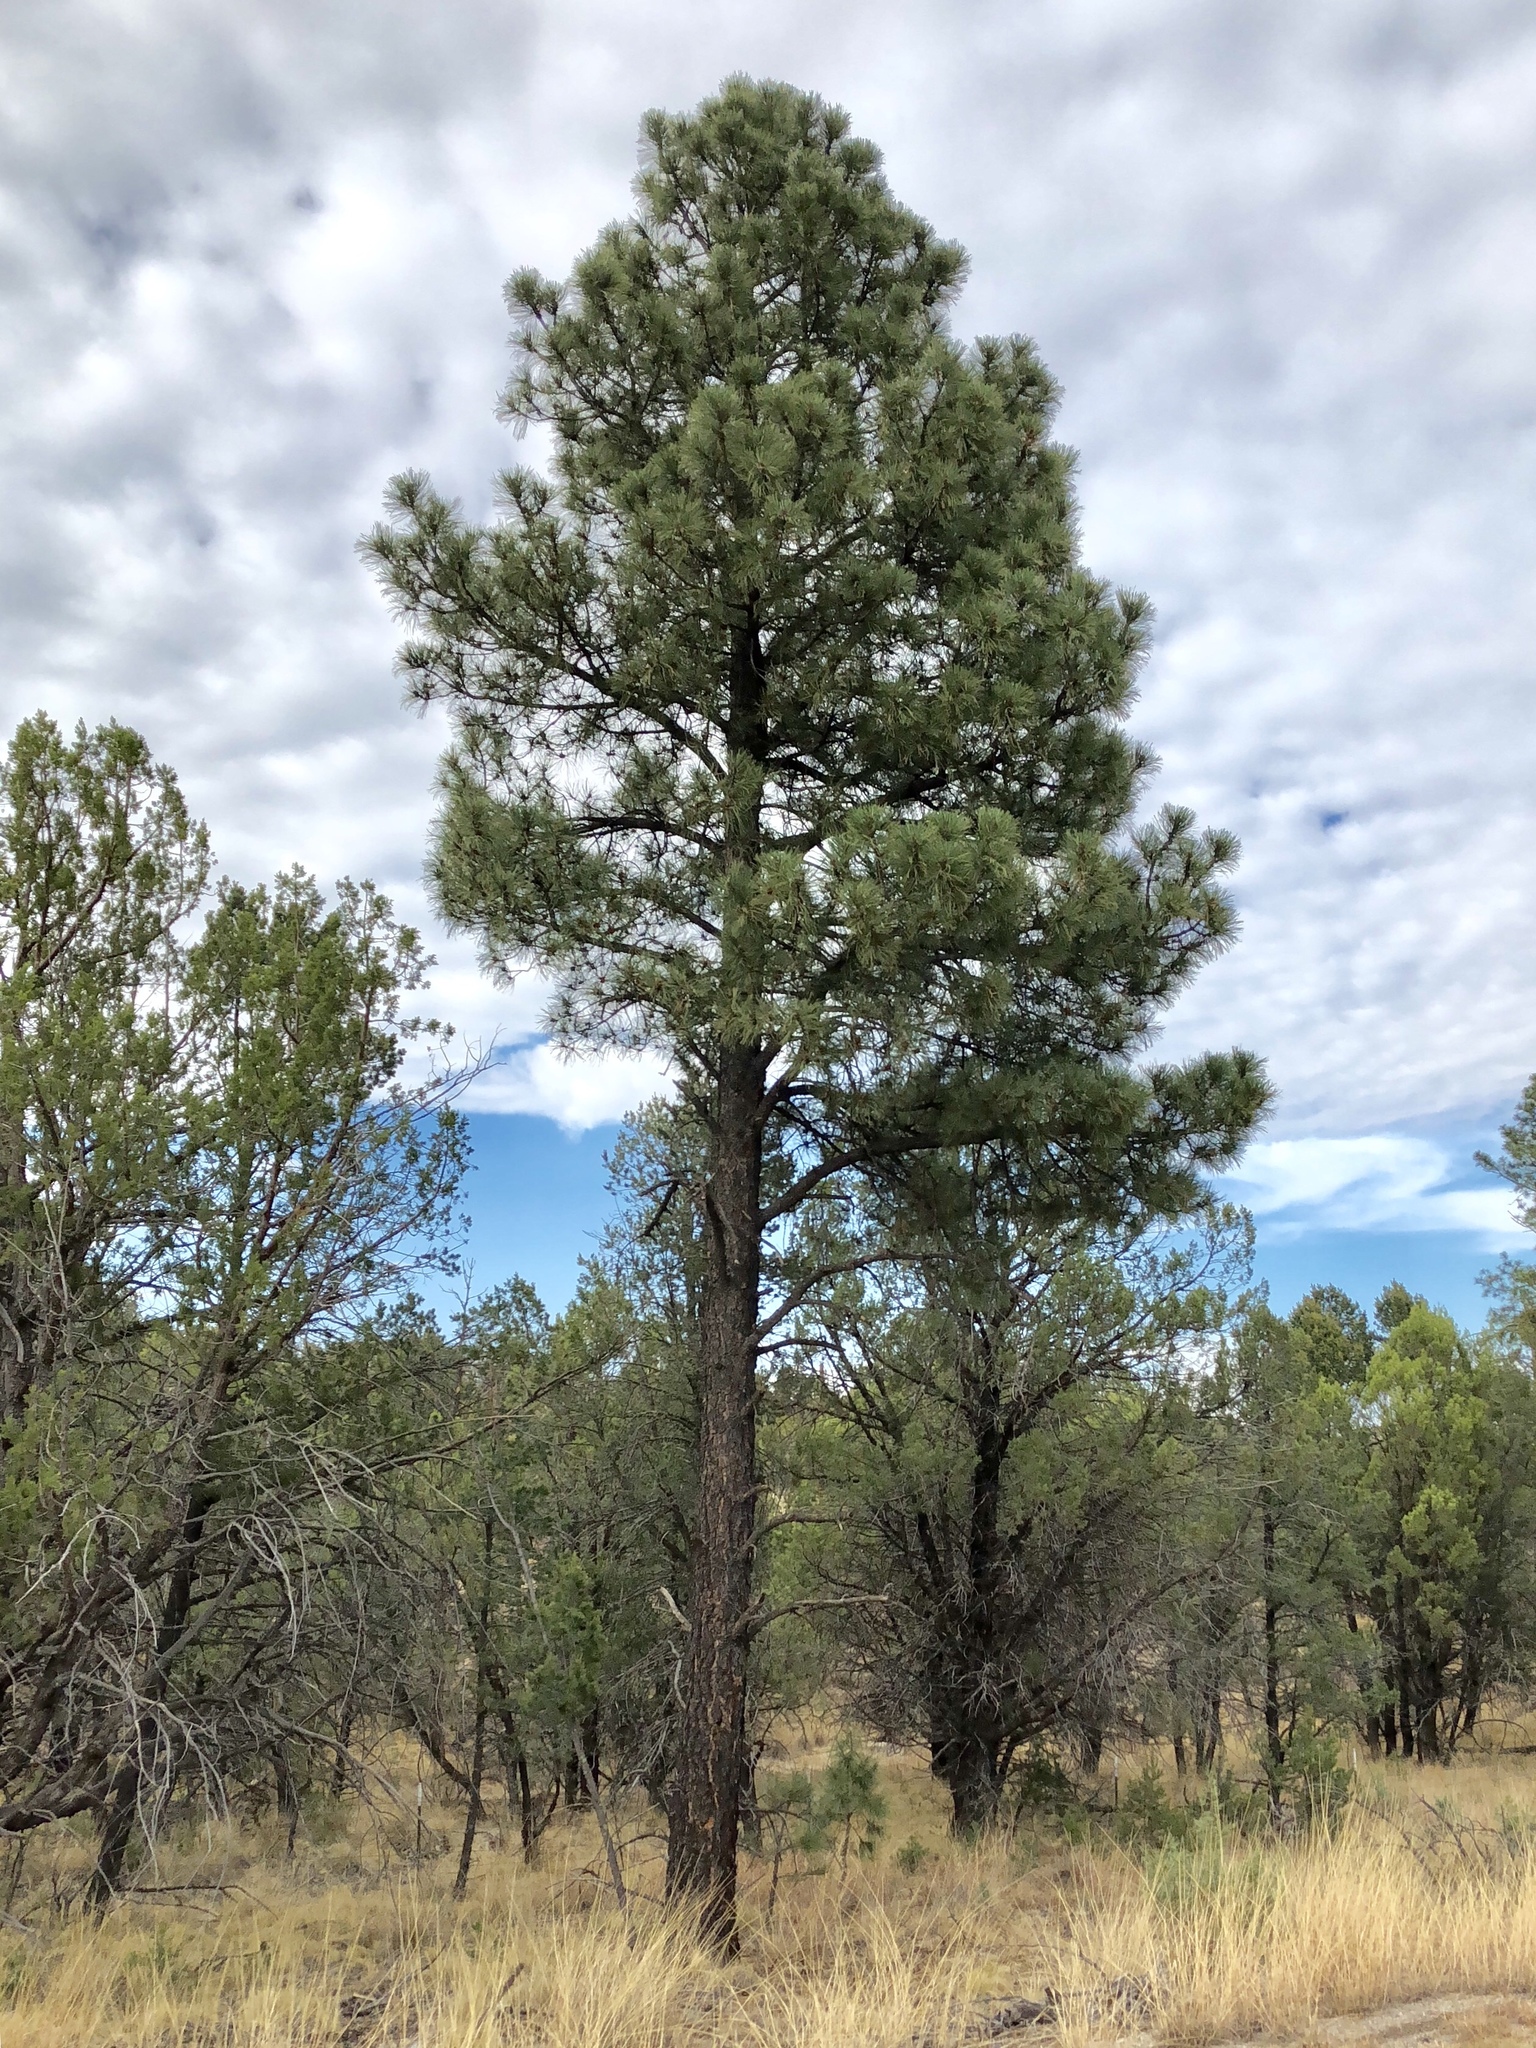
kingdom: Plantae
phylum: Tracheophyta
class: Pinopsida
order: Pinales
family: Pinaceae
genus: Pinus
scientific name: Pinus ponderosa
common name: Western yellow-pine
